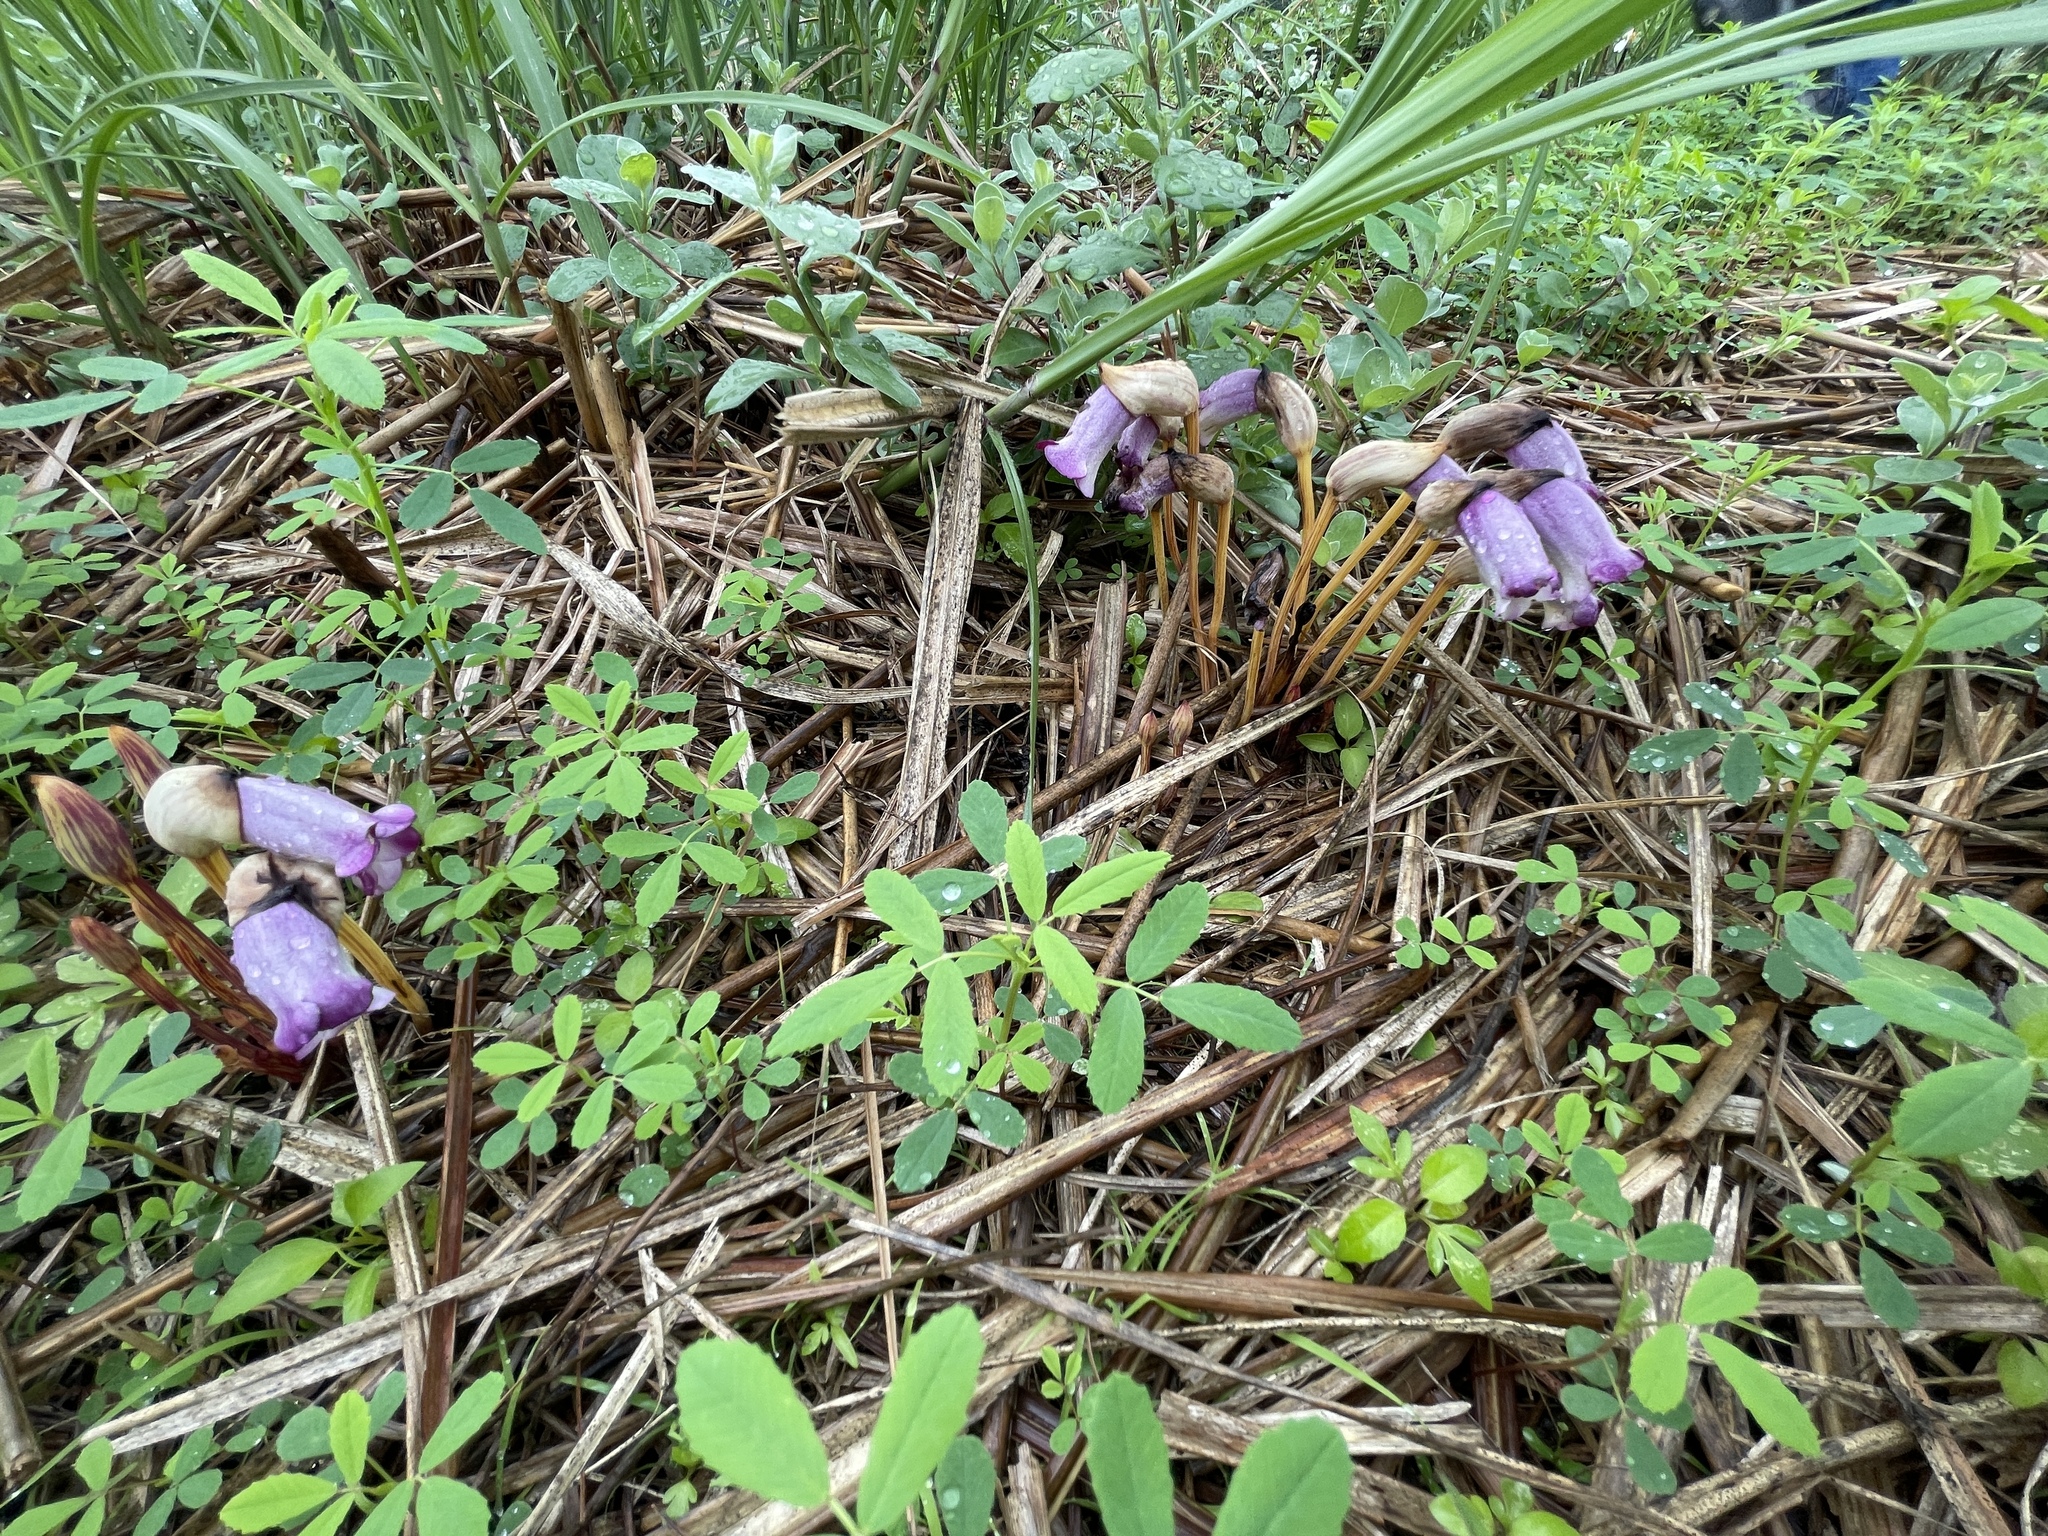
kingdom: Plantae
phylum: Tracheophyta
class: Magnoliopsida
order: Lamiales
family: Orobanchaceae
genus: Aeginetia
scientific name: Aeginetia indica
